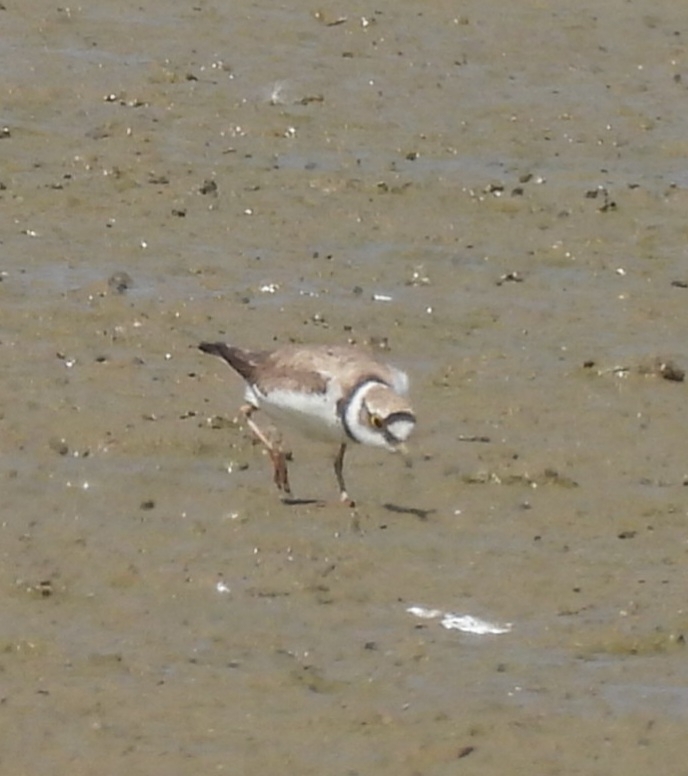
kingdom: Animalia
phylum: Chordata
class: Aves
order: Charadriiformes
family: Charadriidae
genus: Charadrius
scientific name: Charadrius dubius
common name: Little ringed plover
